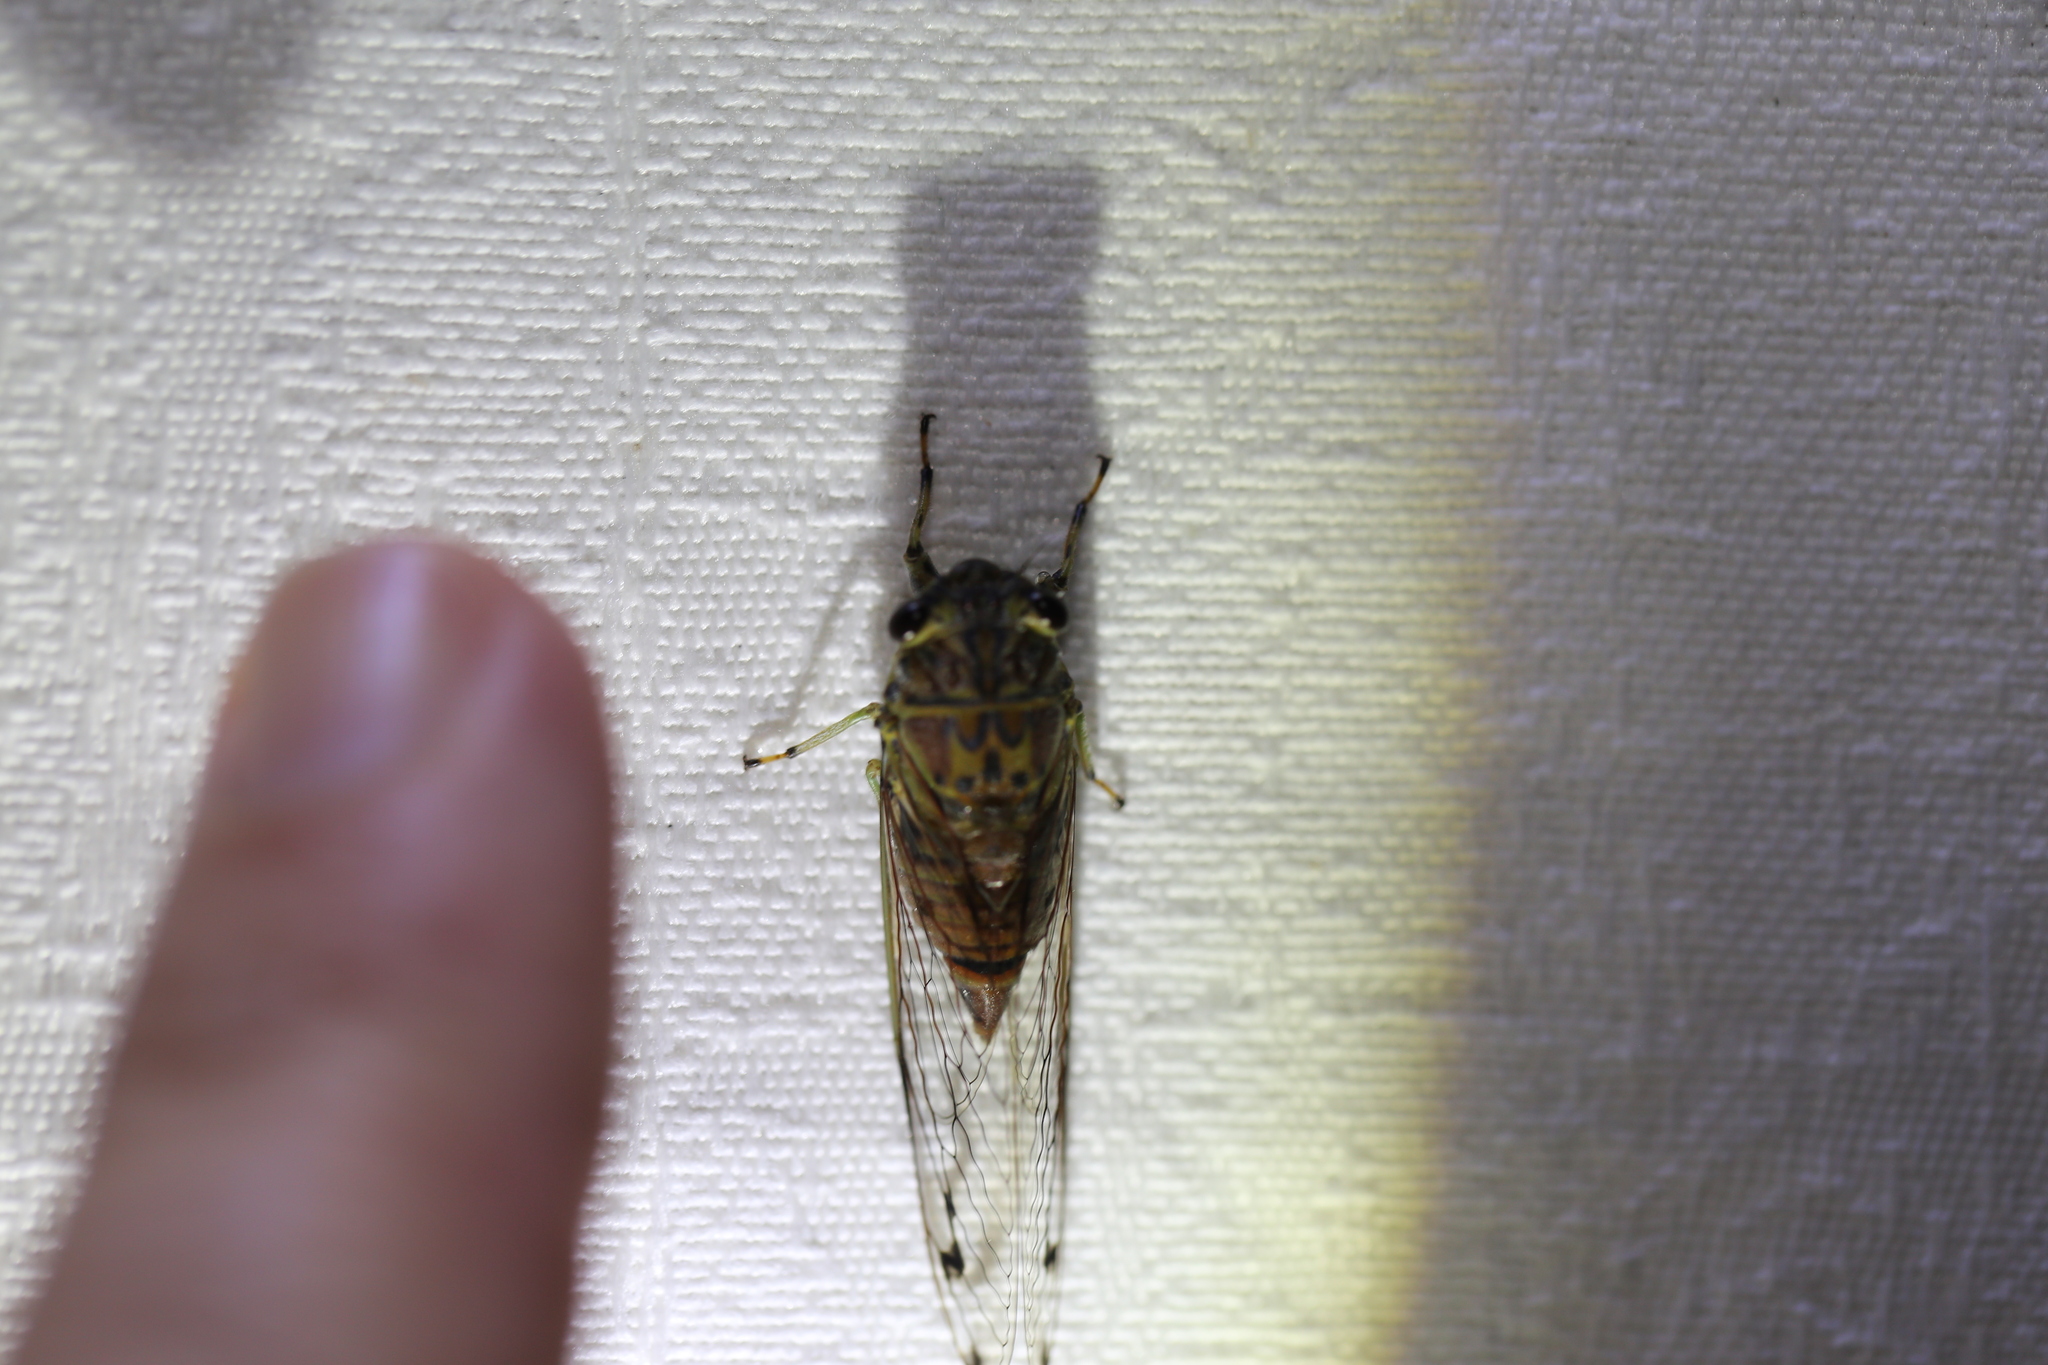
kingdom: Animalia
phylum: Arthropoda
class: Insecta
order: Hemiptera
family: Cicadidae
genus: Tamasa
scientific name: Tamasa tristigma
